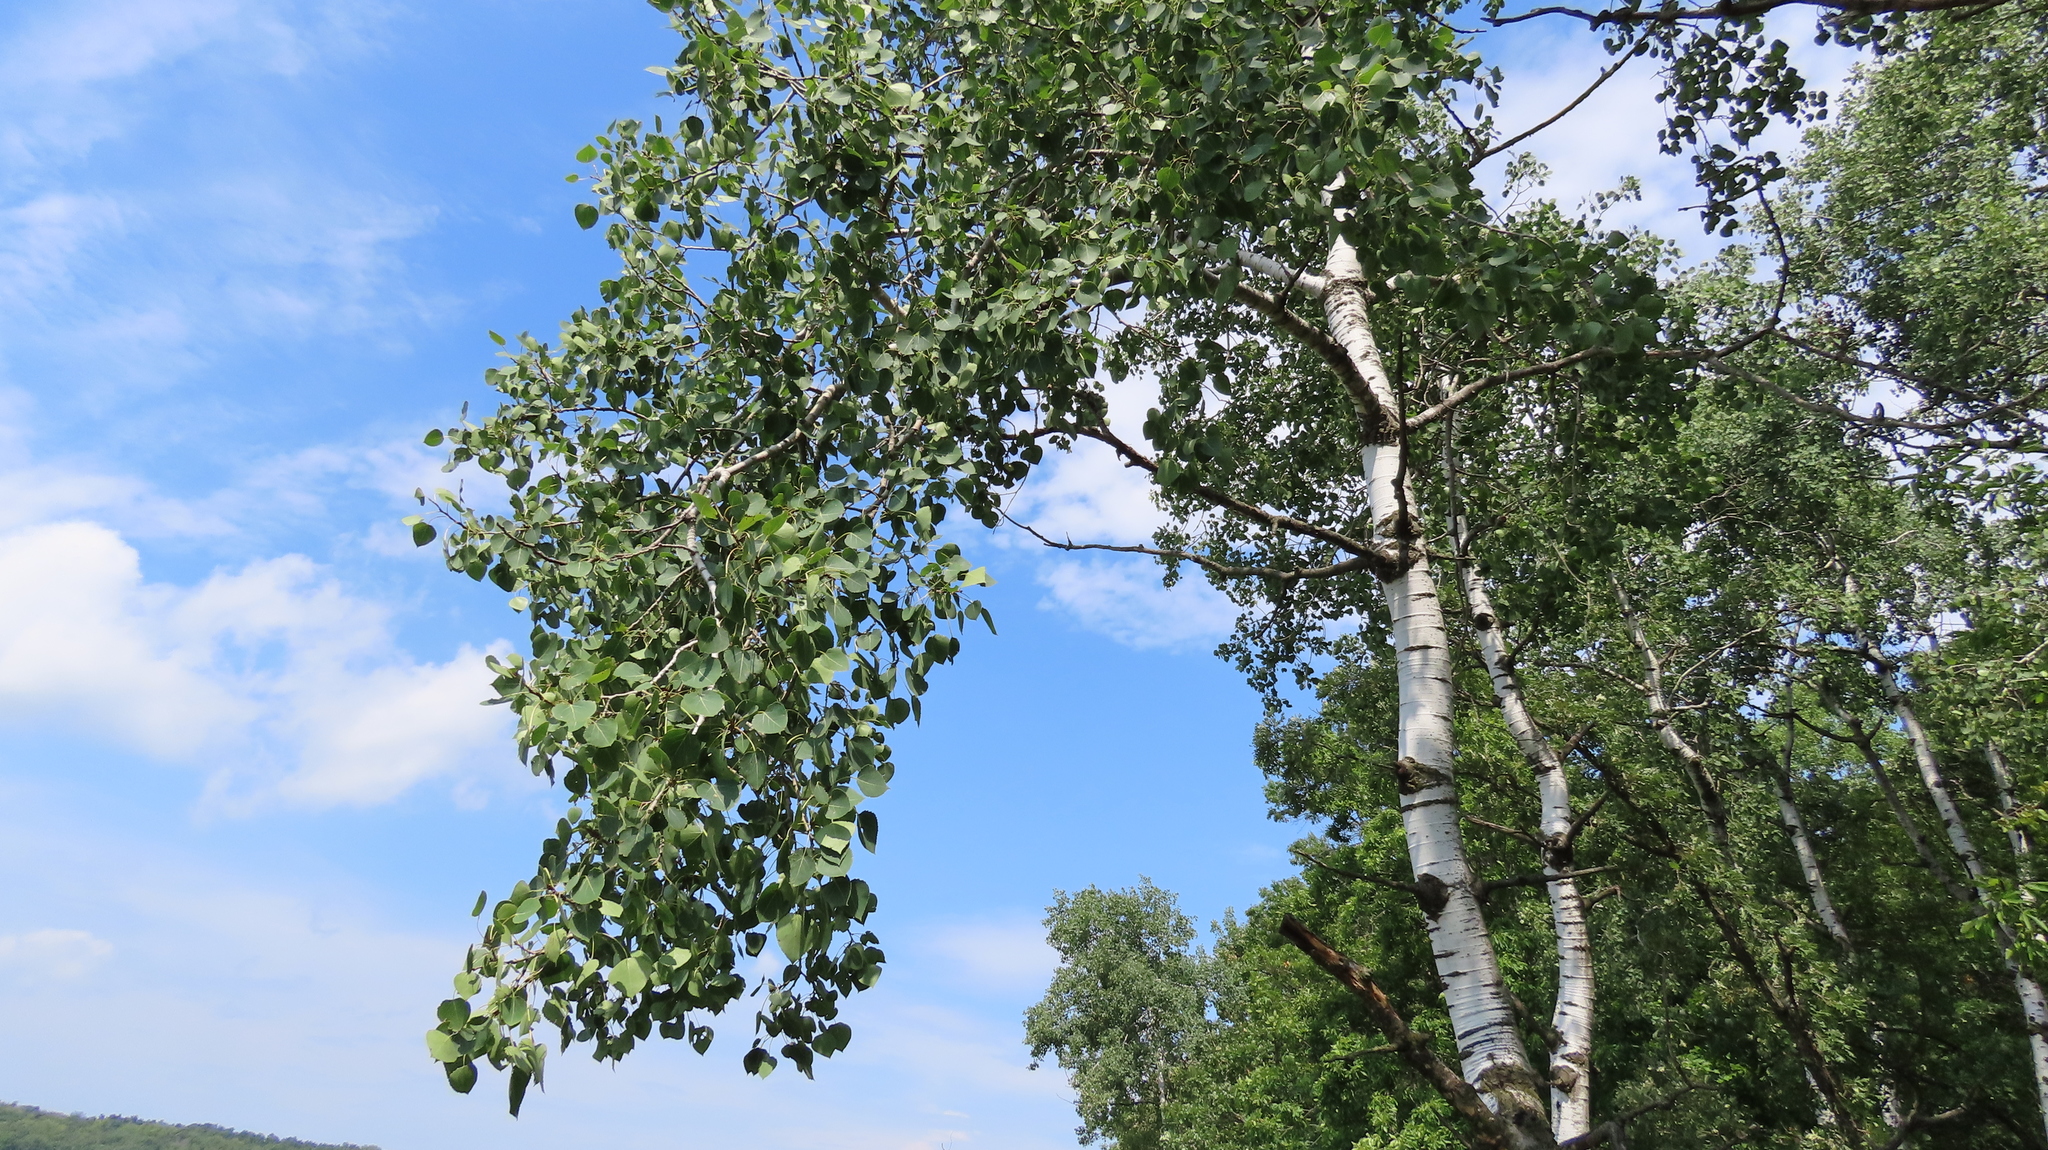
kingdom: Plantae
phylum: Tracheophyta
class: Magnoliopsida
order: Malpighiales
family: Salicaceae
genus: Populus
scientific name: Populus tremuloides
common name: Quaking aspen
